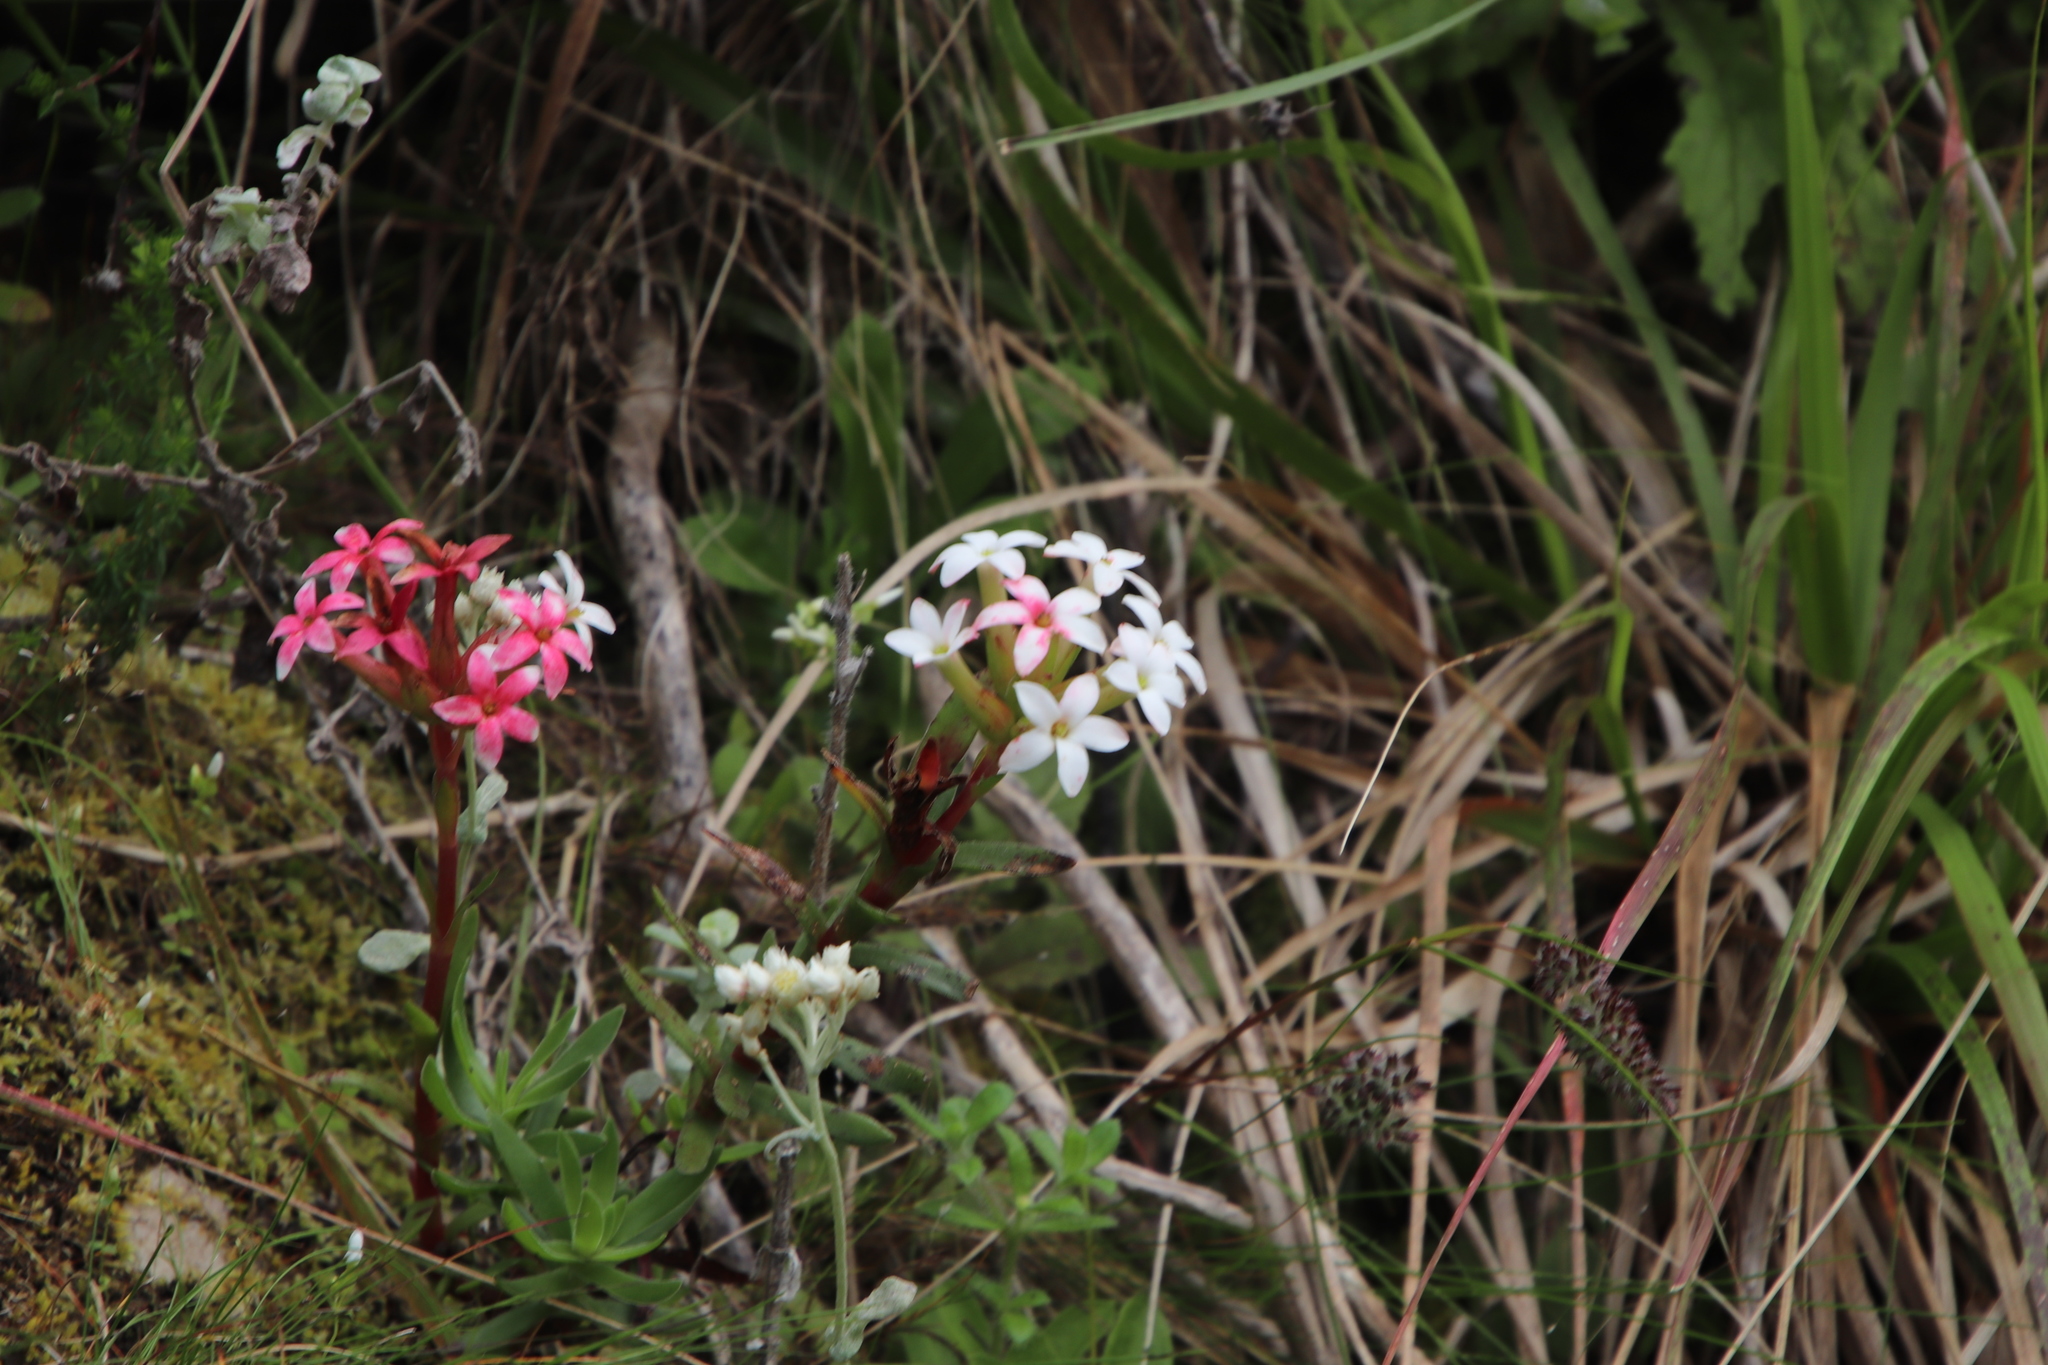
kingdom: Plantae
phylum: Tracheophyta
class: Magnoliopsida
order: Saxifragales
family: Crassulaceae
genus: Crassula
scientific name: Crassula fascicularis
